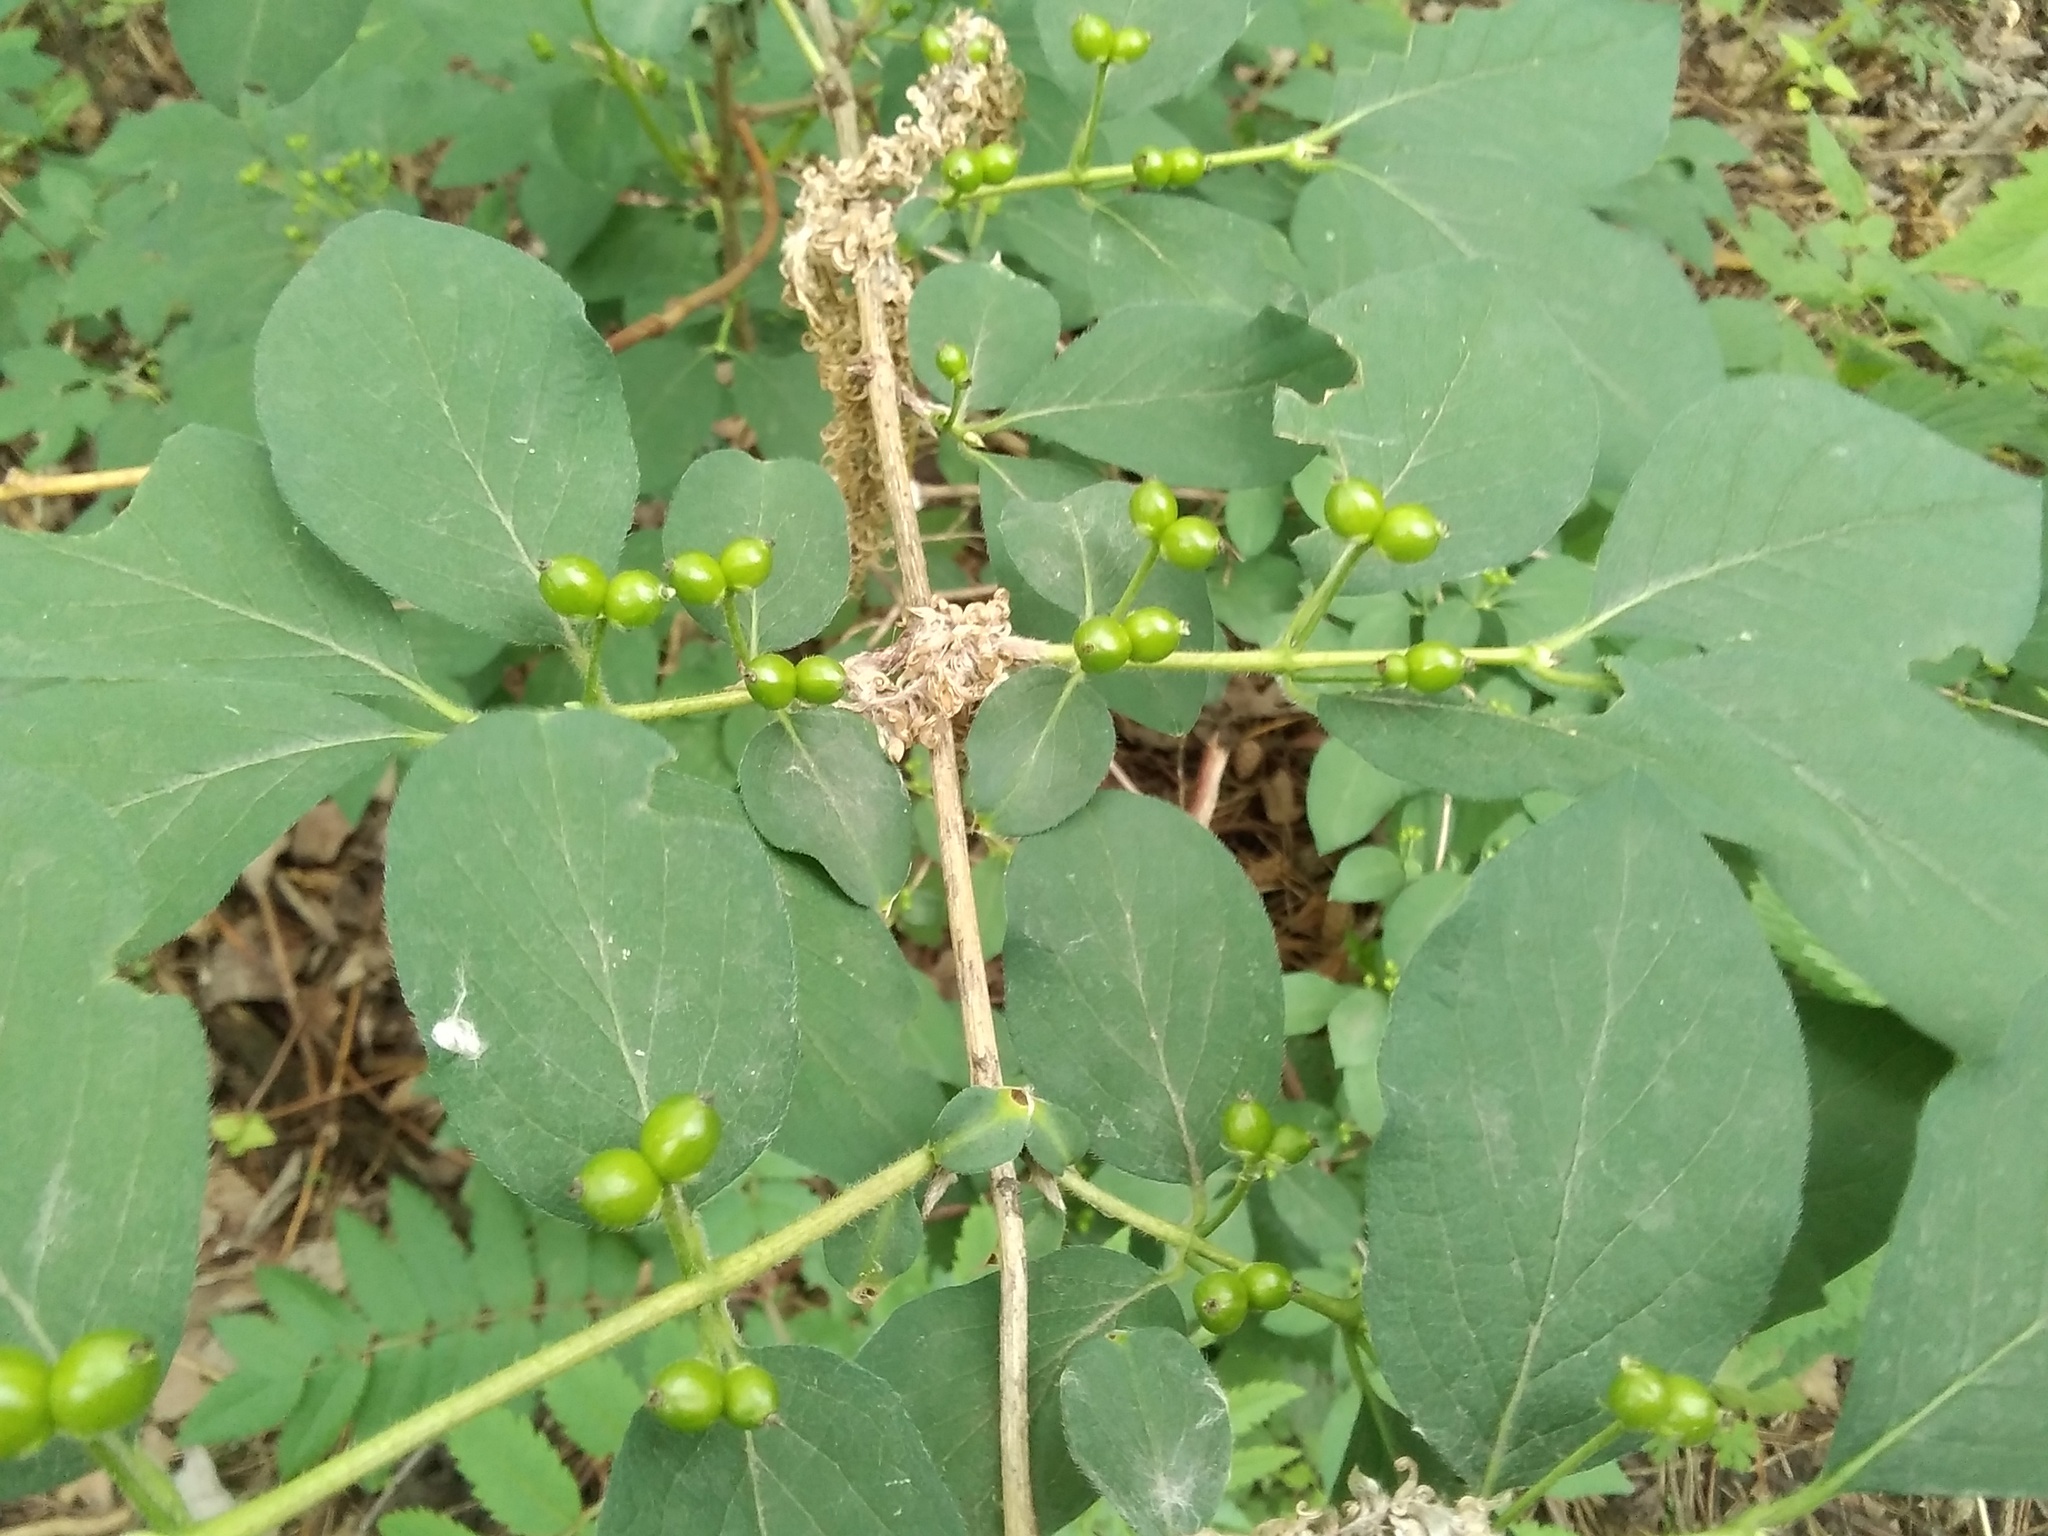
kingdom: Plantae
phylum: Tracheophyta
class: Magnoliopsida
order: Dipsacales
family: Caprifoliaceae
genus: Lonicera
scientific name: Lonicera xylosteum
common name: Fly honeysuckle
